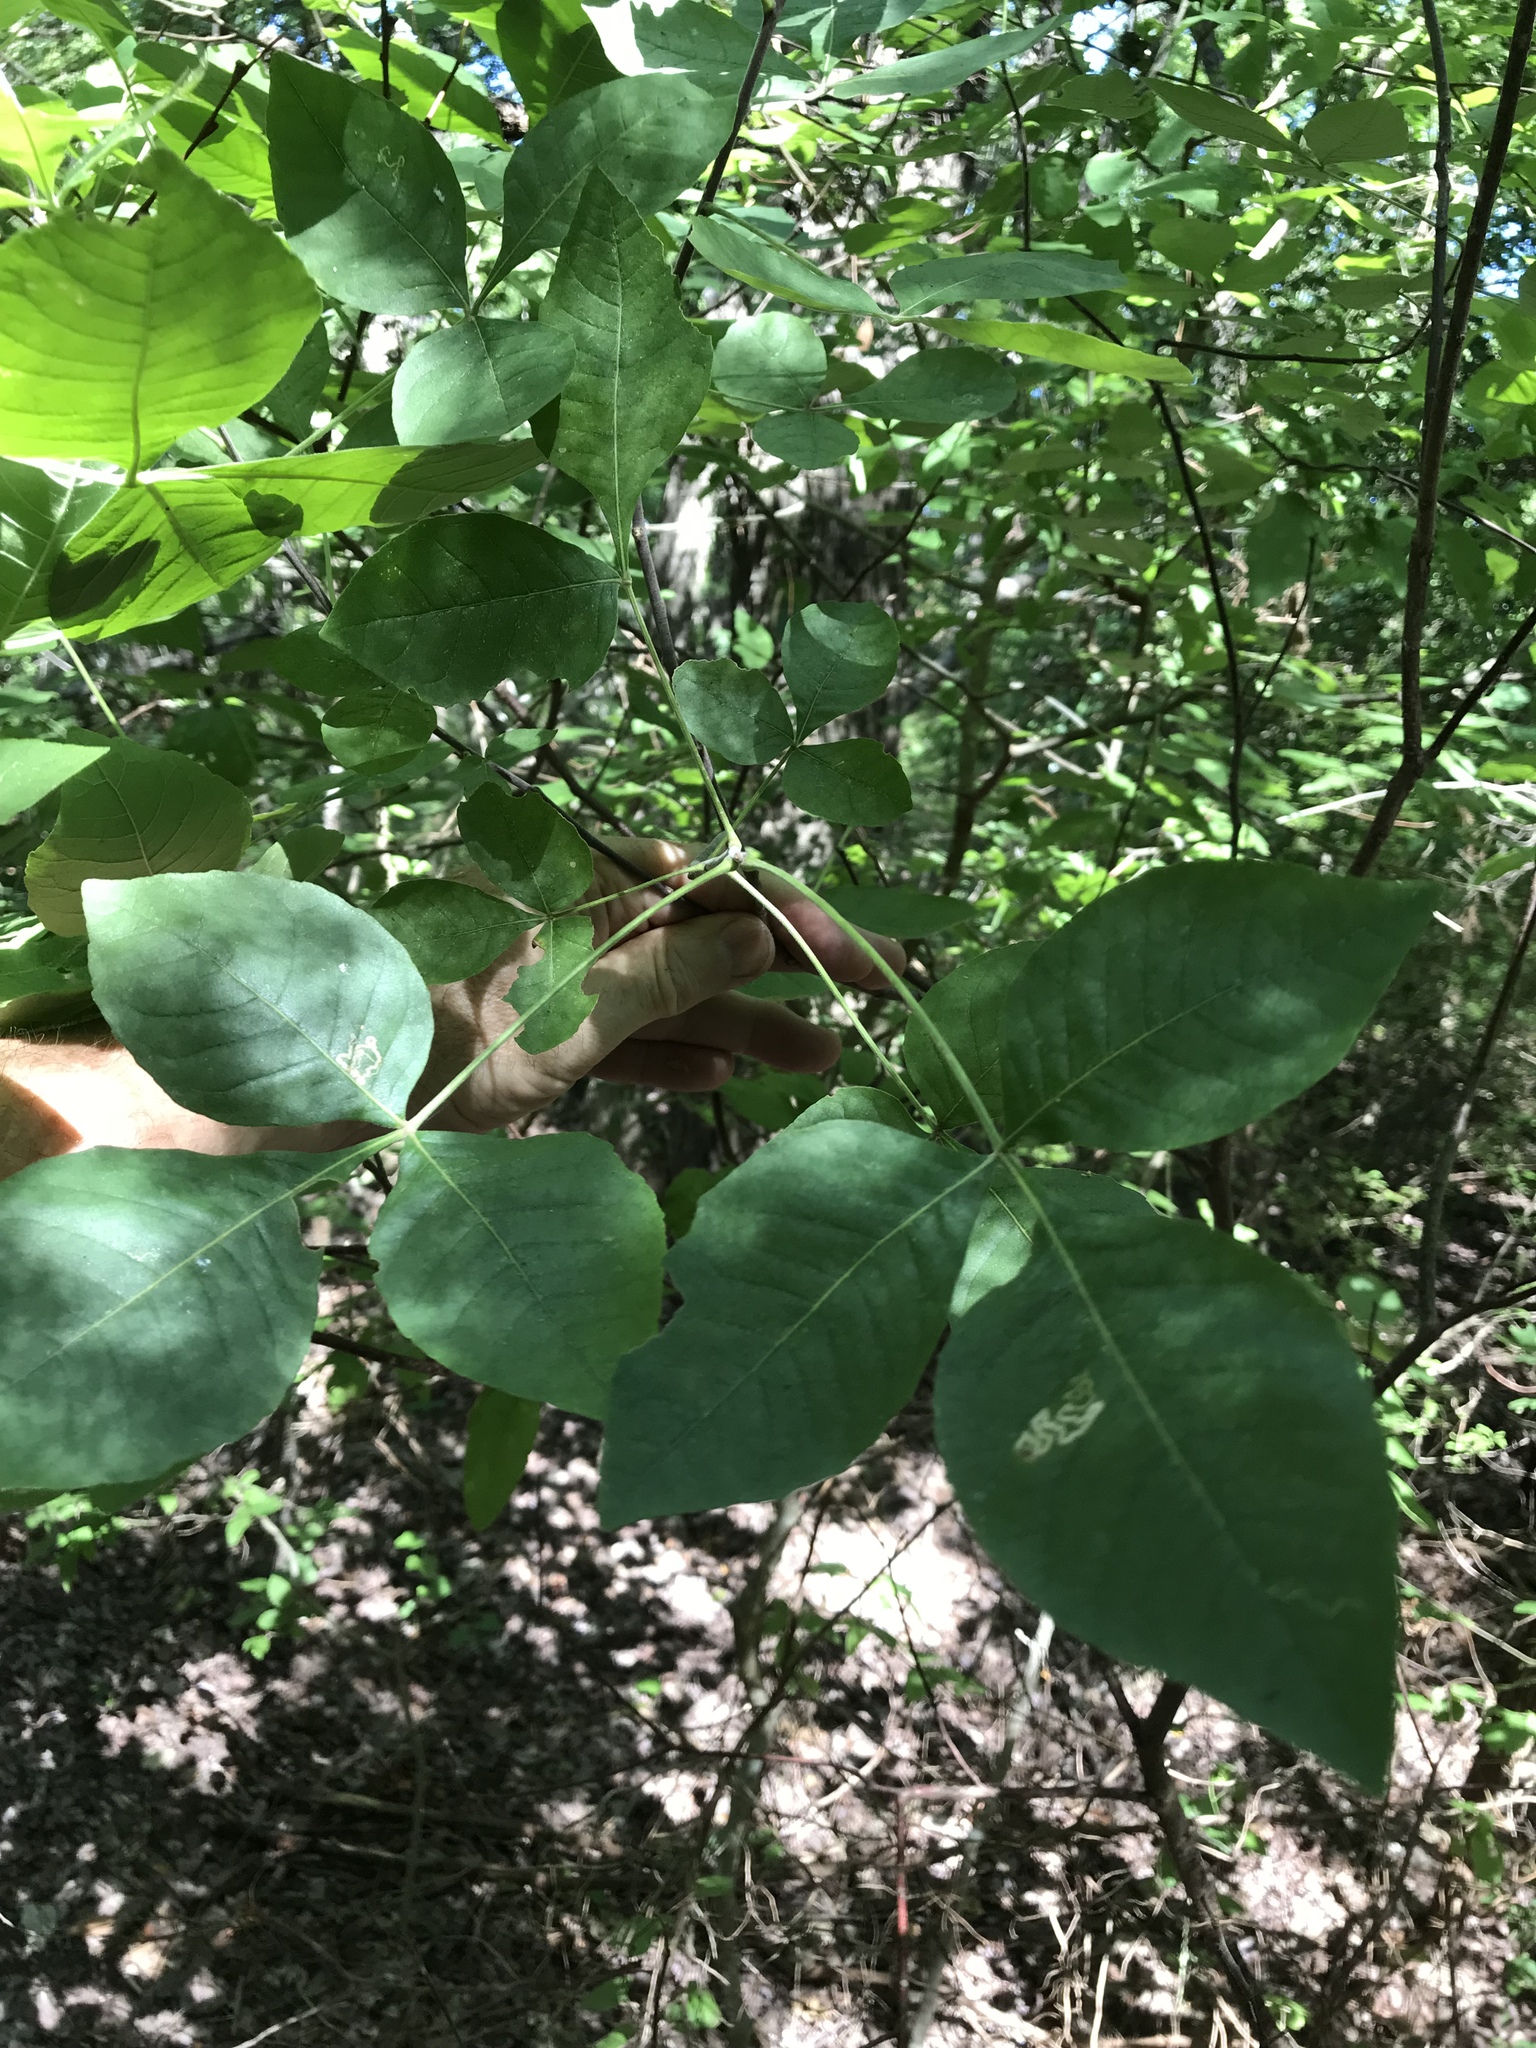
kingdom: Plantae
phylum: Tracheophyta
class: Magnoliopsida
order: Sapindales
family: Rutaceae
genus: Ptelea
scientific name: Ptelea trifoliata
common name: Common hop-tree
